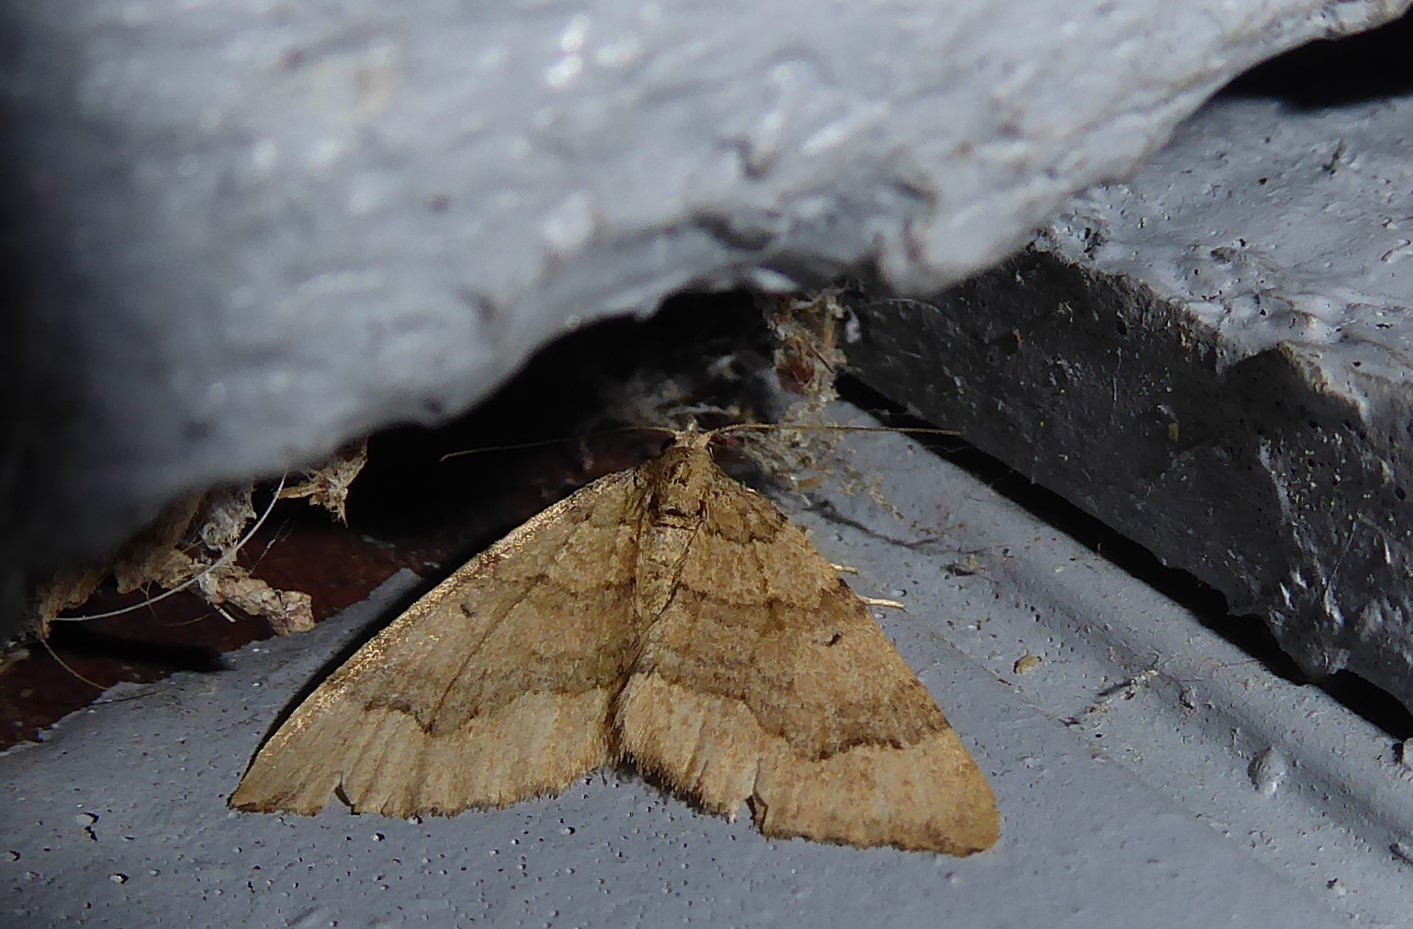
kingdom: Animalia
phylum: Arthropoda
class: Insecta
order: Lepidoptera
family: Geometridae
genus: Epyaxa
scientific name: Epyaxa rosearia
